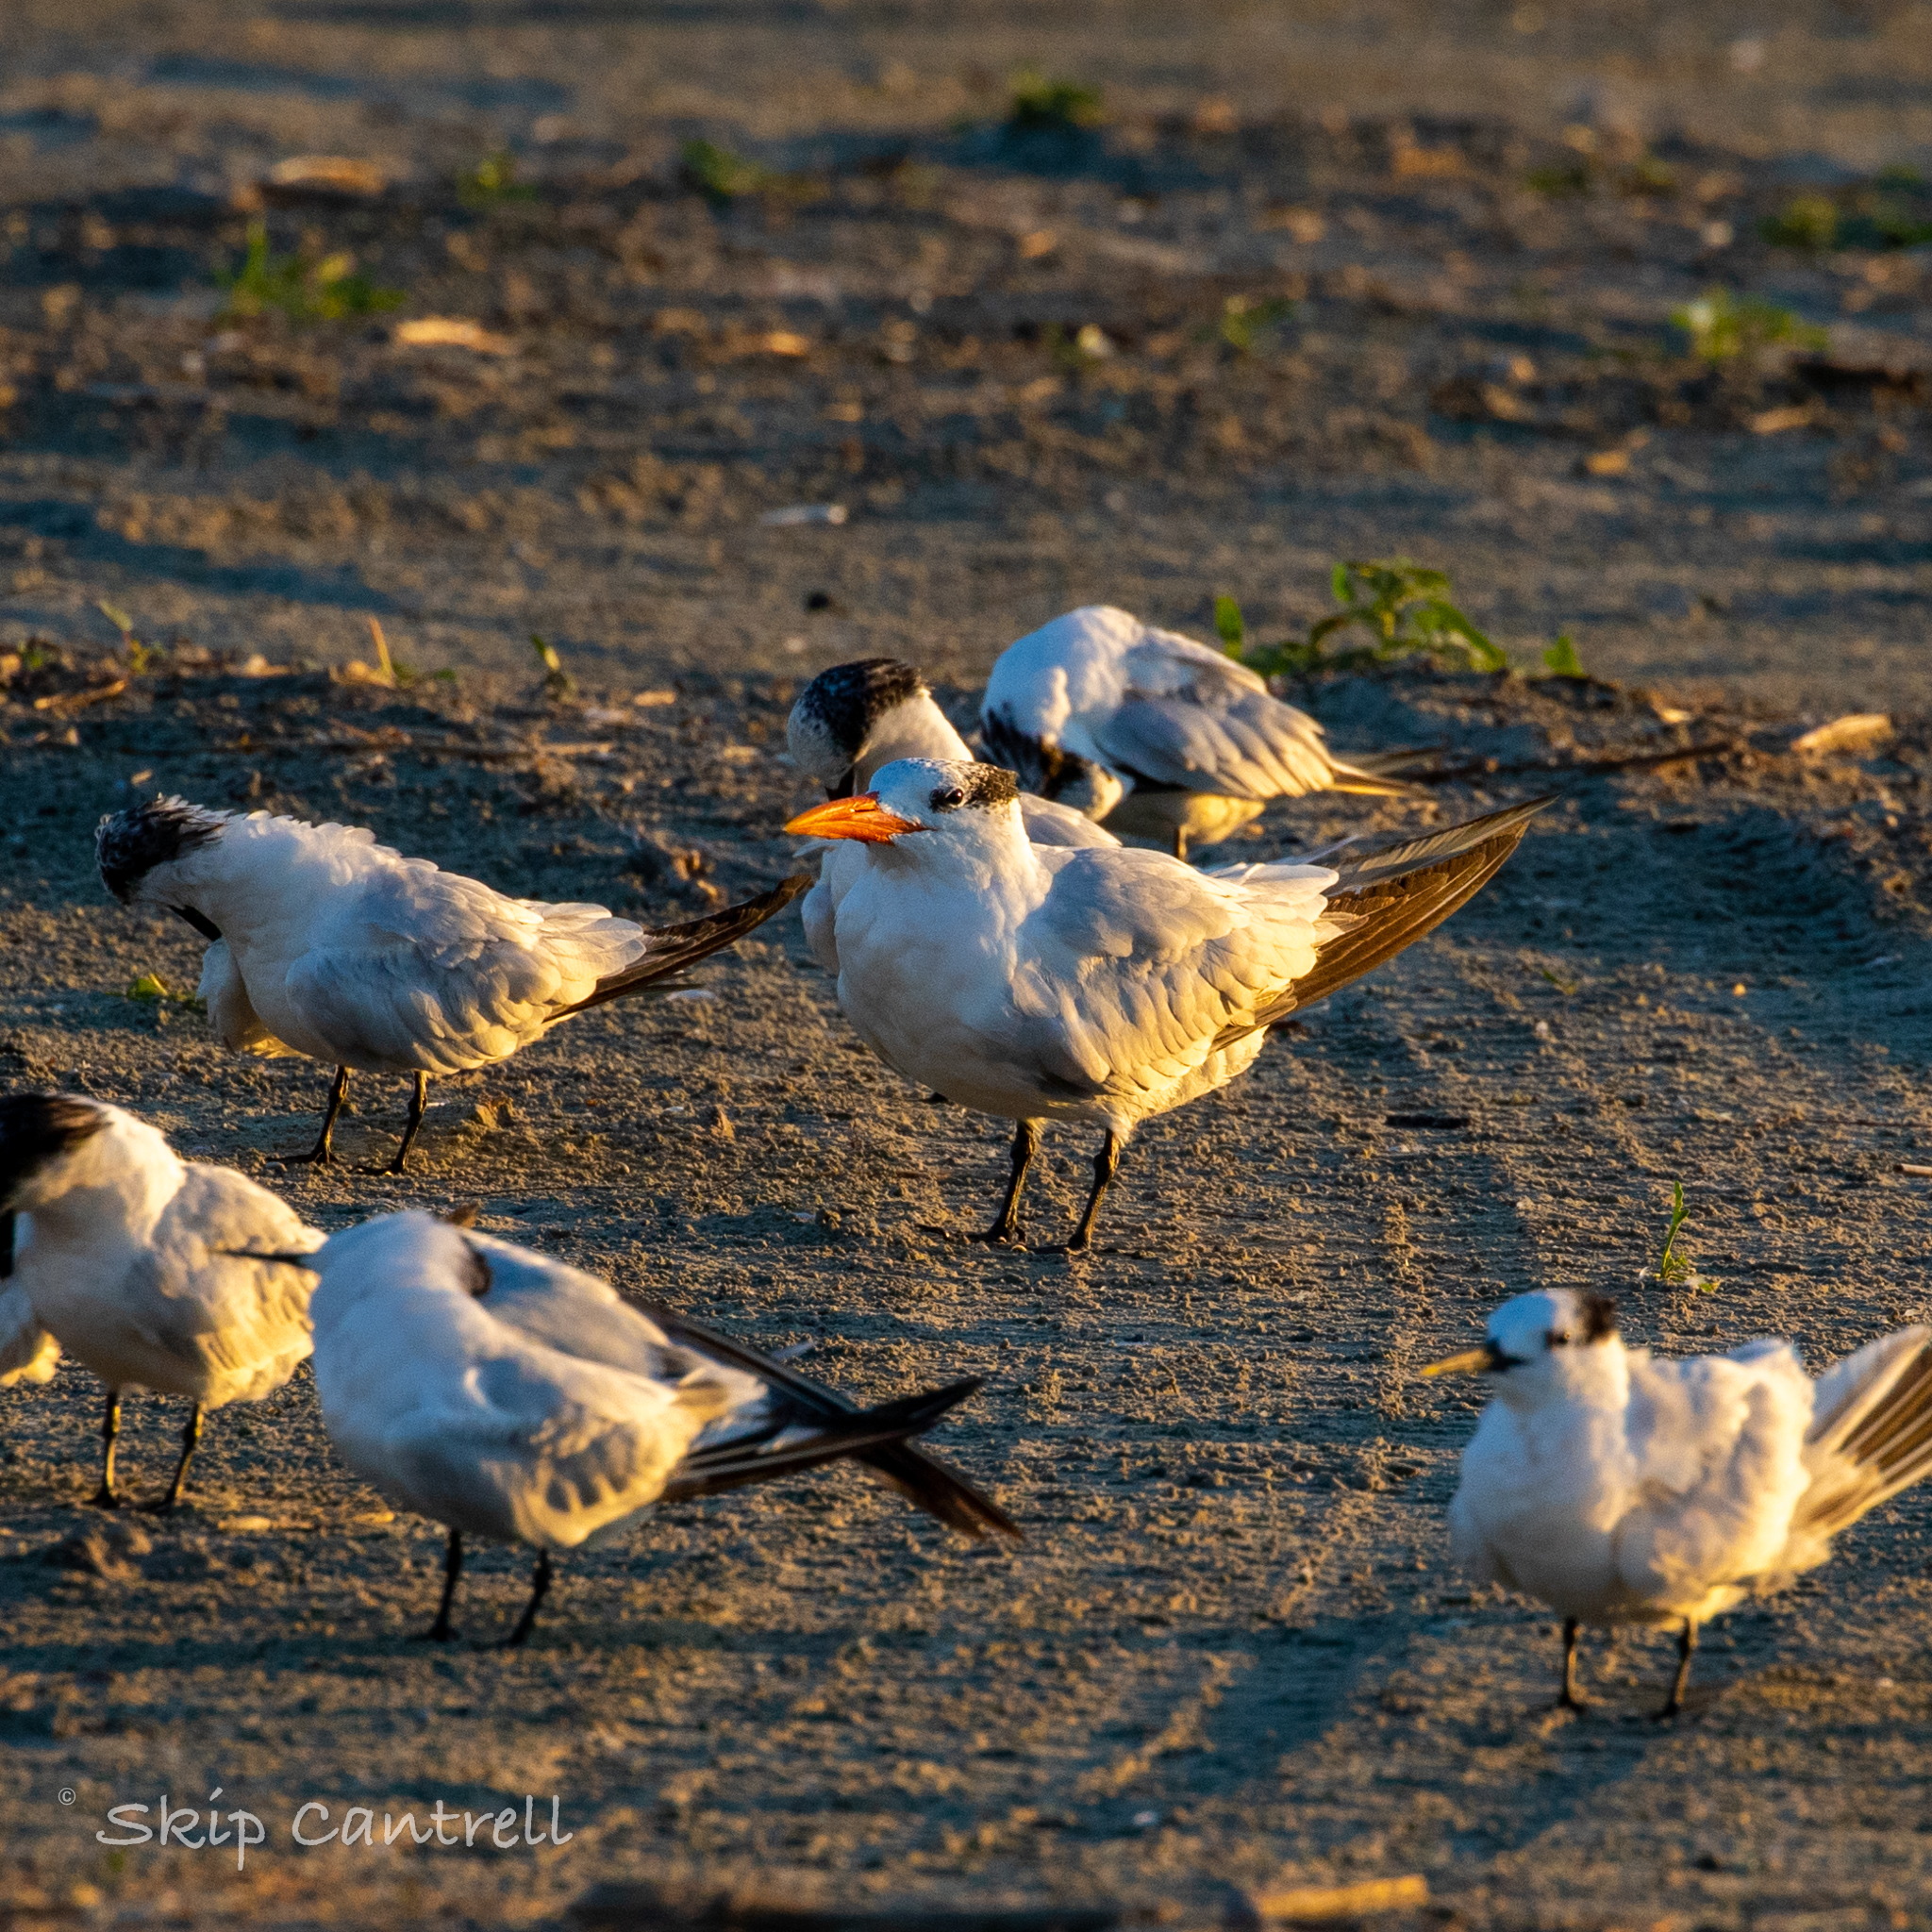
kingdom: Animalia
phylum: Chordata
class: Aves
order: Charadriiformes
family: Laridae
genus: Thalasseus
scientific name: Thalasseus maximus
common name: Royal tern
